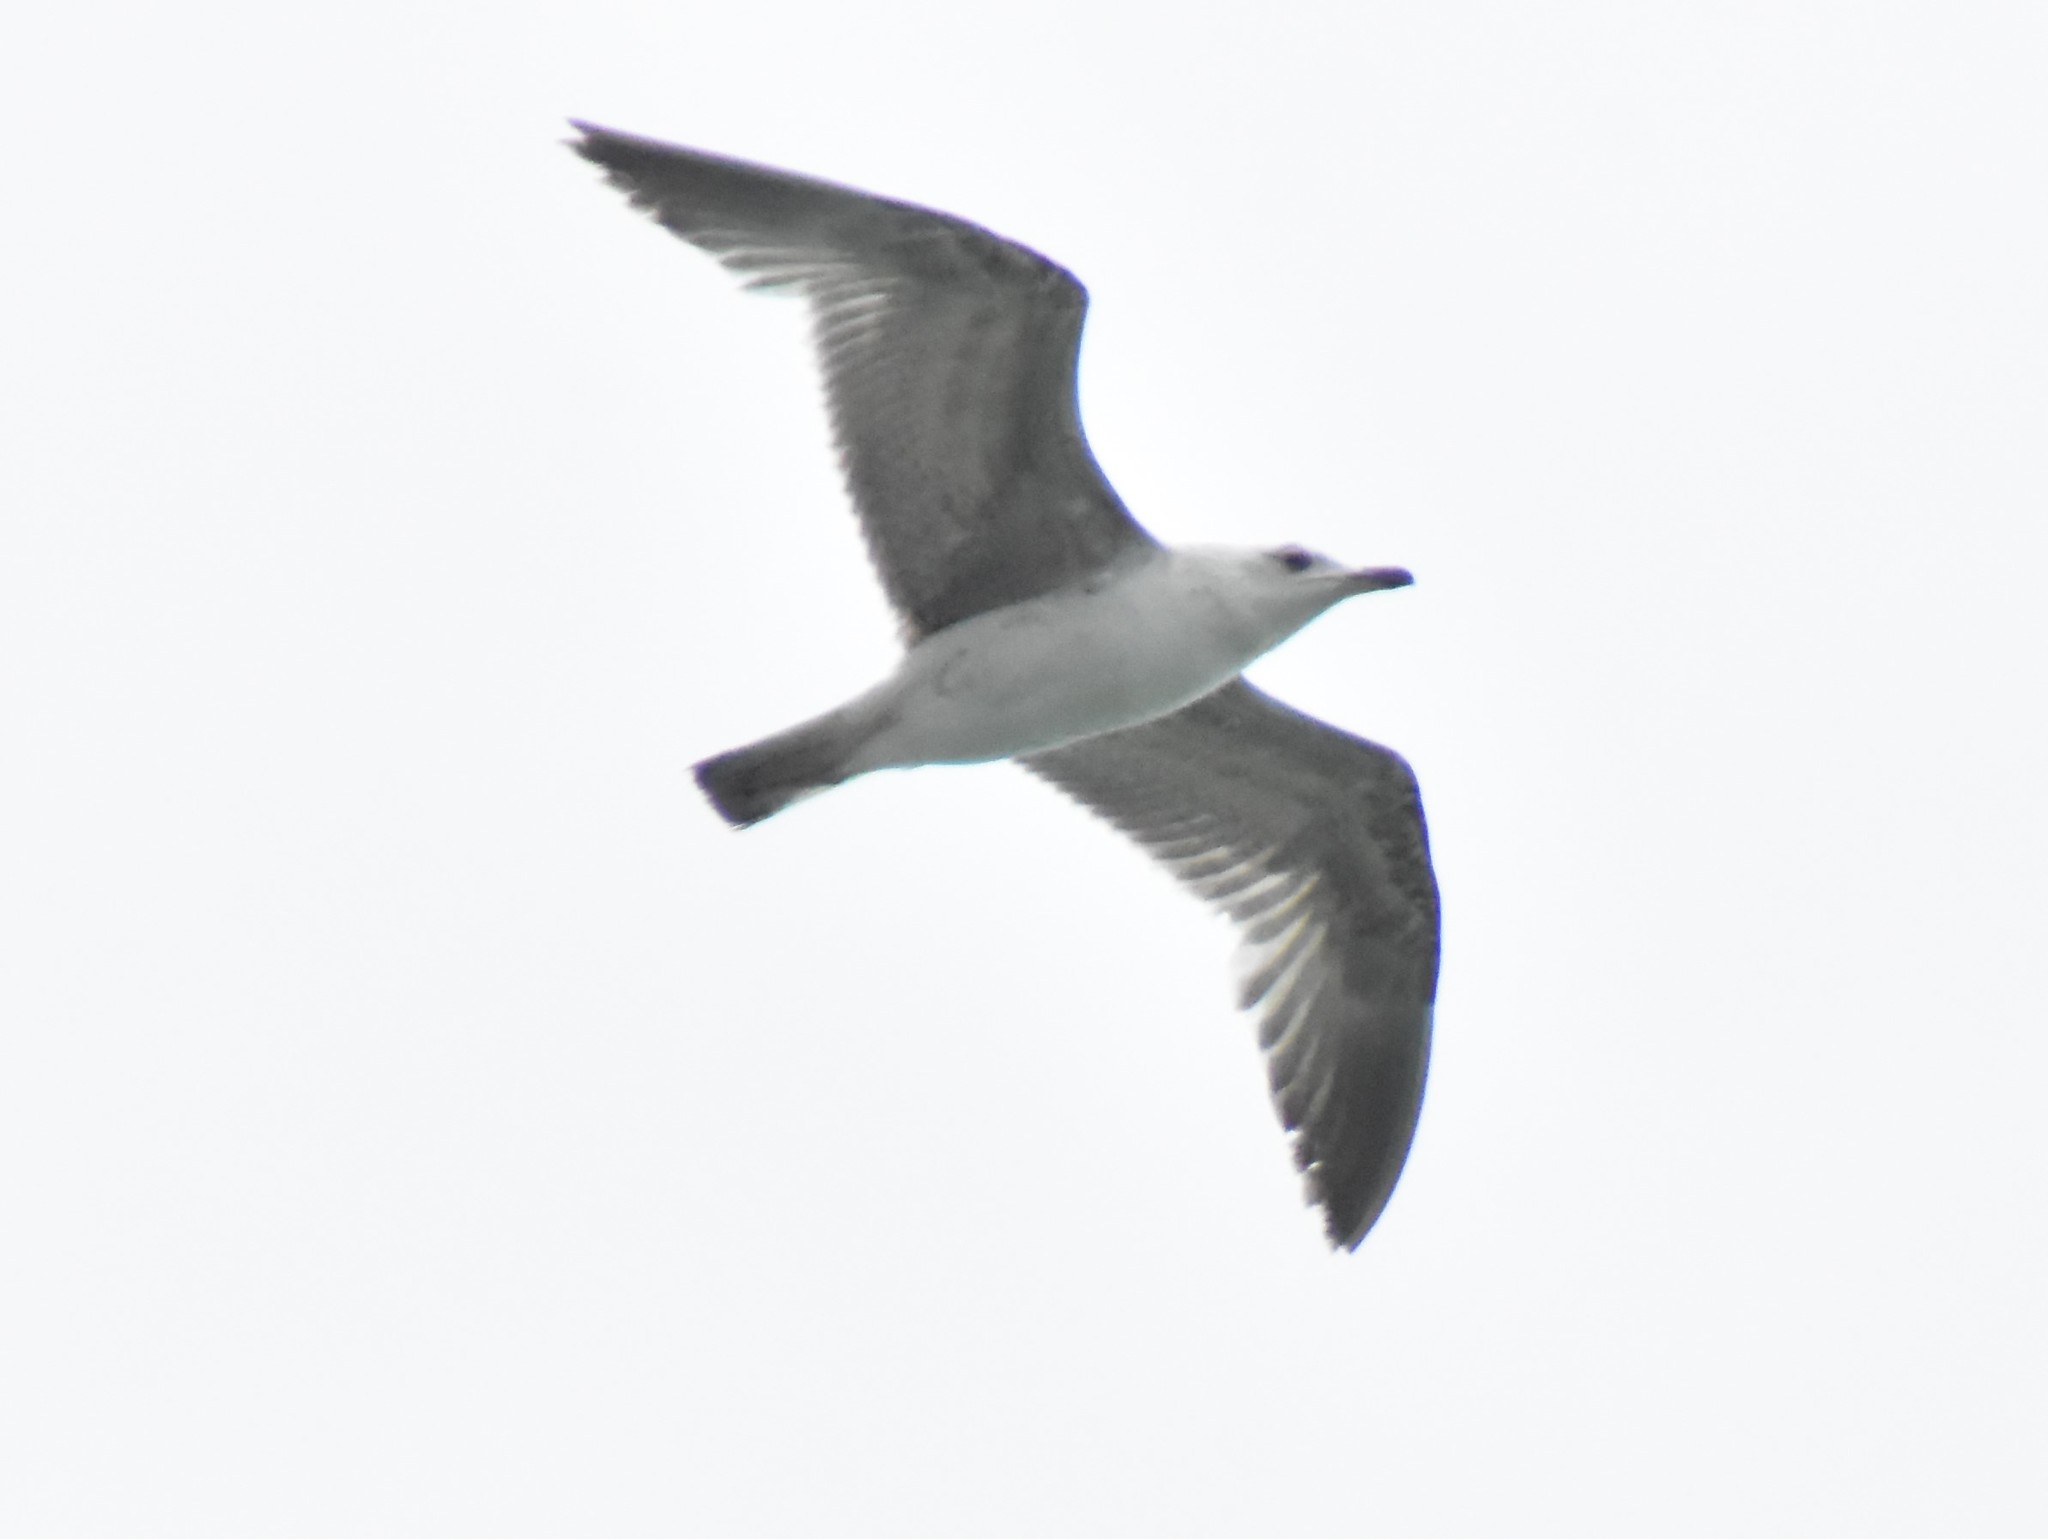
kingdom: Animalia
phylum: Chordata
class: Aves
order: Charadriiformes
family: Laridae
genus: Larus
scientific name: Larus michahellis
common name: Yellow-legged gull
